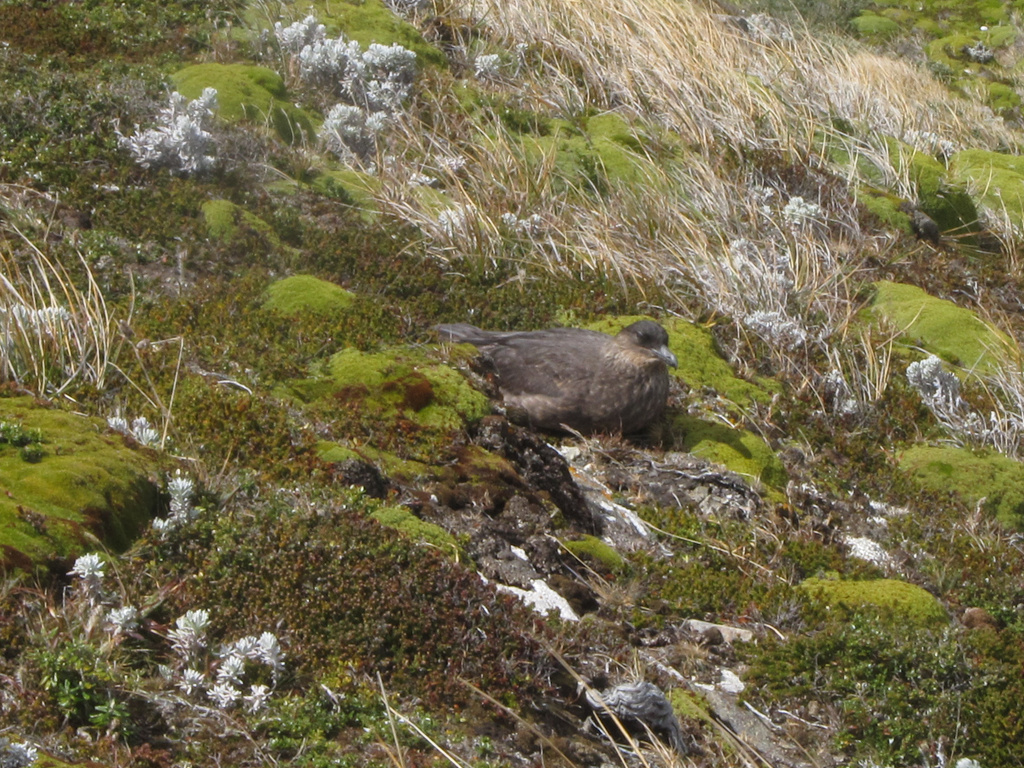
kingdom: Animalia
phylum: Chordata
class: Aves
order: Charadriiformes
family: Stercorariidae
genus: Stercorarius
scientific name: Stercorarius chilensis
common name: Chilean skua
